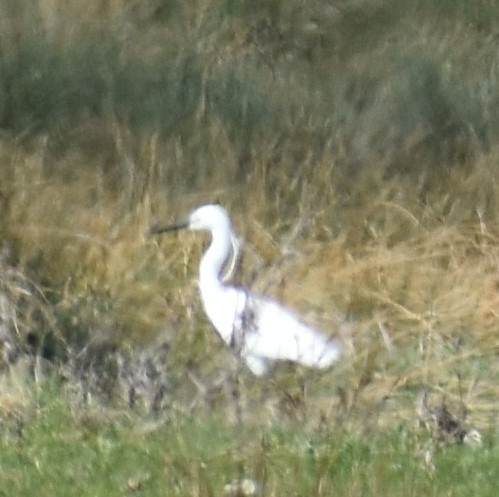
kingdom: Animalia
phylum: Chordata
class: Aves
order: Pelecaniformes
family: Ardeidae
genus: Egretta
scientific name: Egretta garzetta
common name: Little egret
